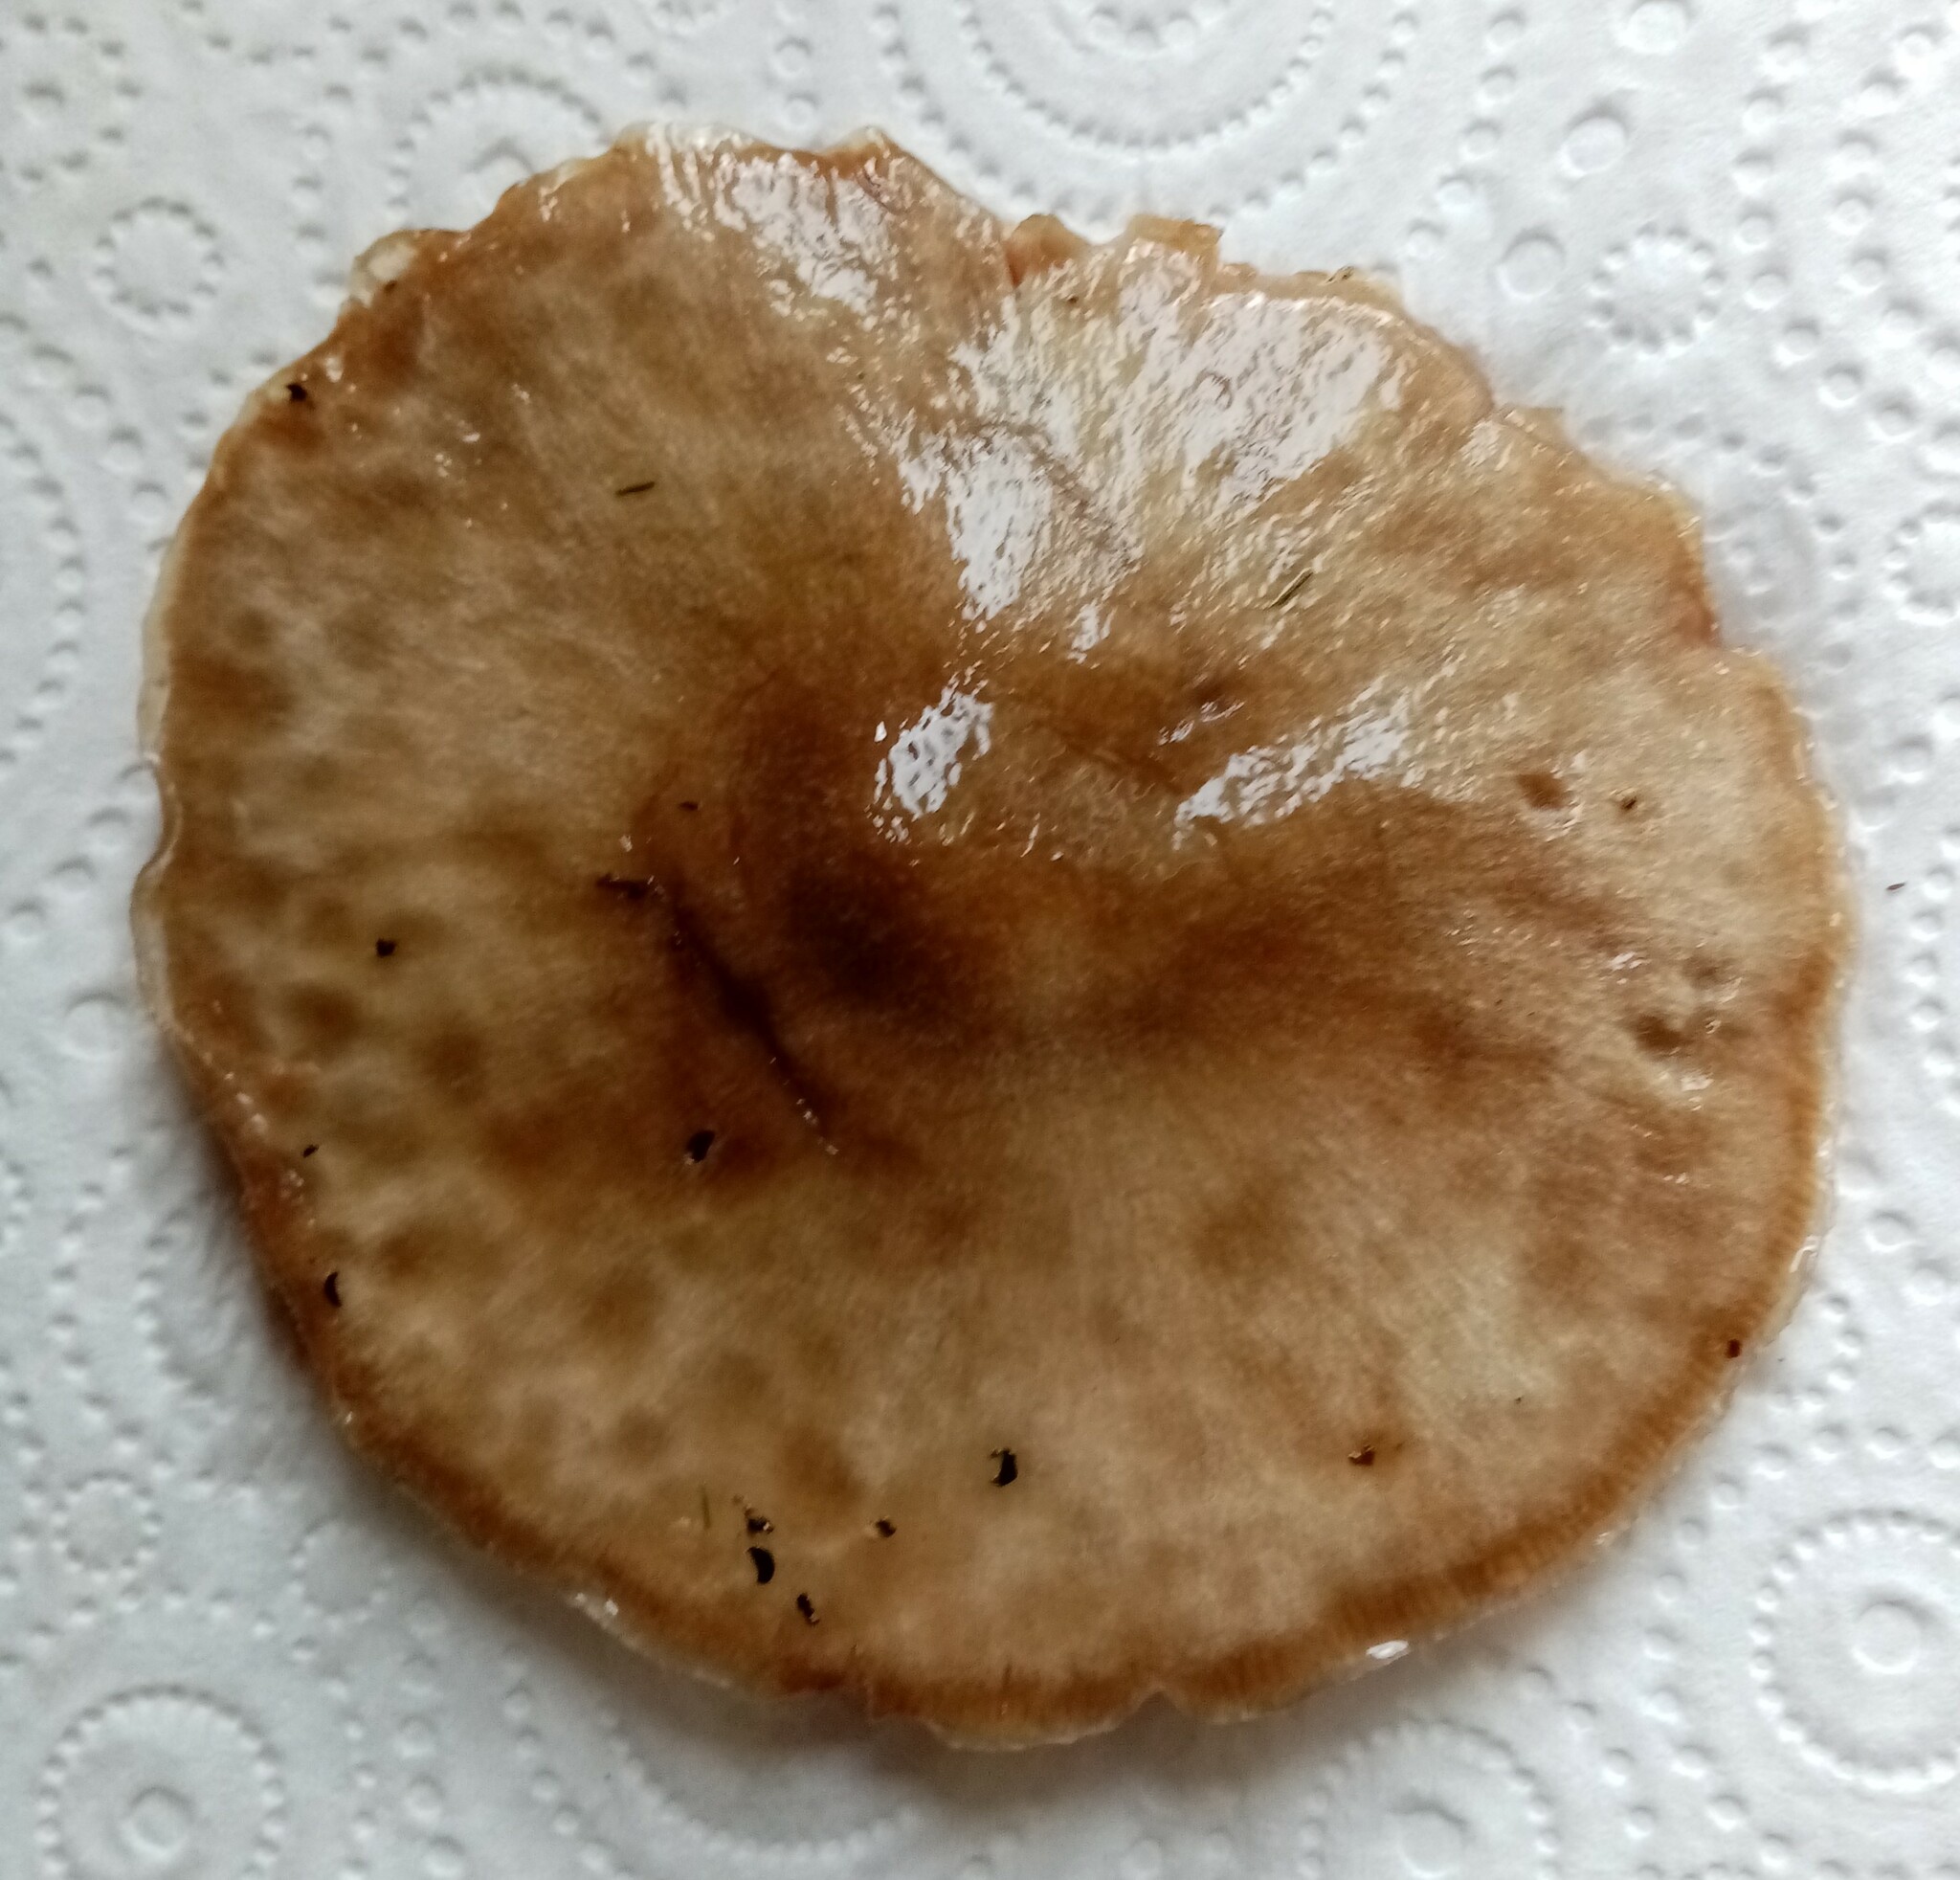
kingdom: Fungi
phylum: Basidiomycota
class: Agaricomycetes
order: Agaricales
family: Pluteaceae
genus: Volvopluteus
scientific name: Volvopluteus gloiocephalus
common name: Stubble rosegill
